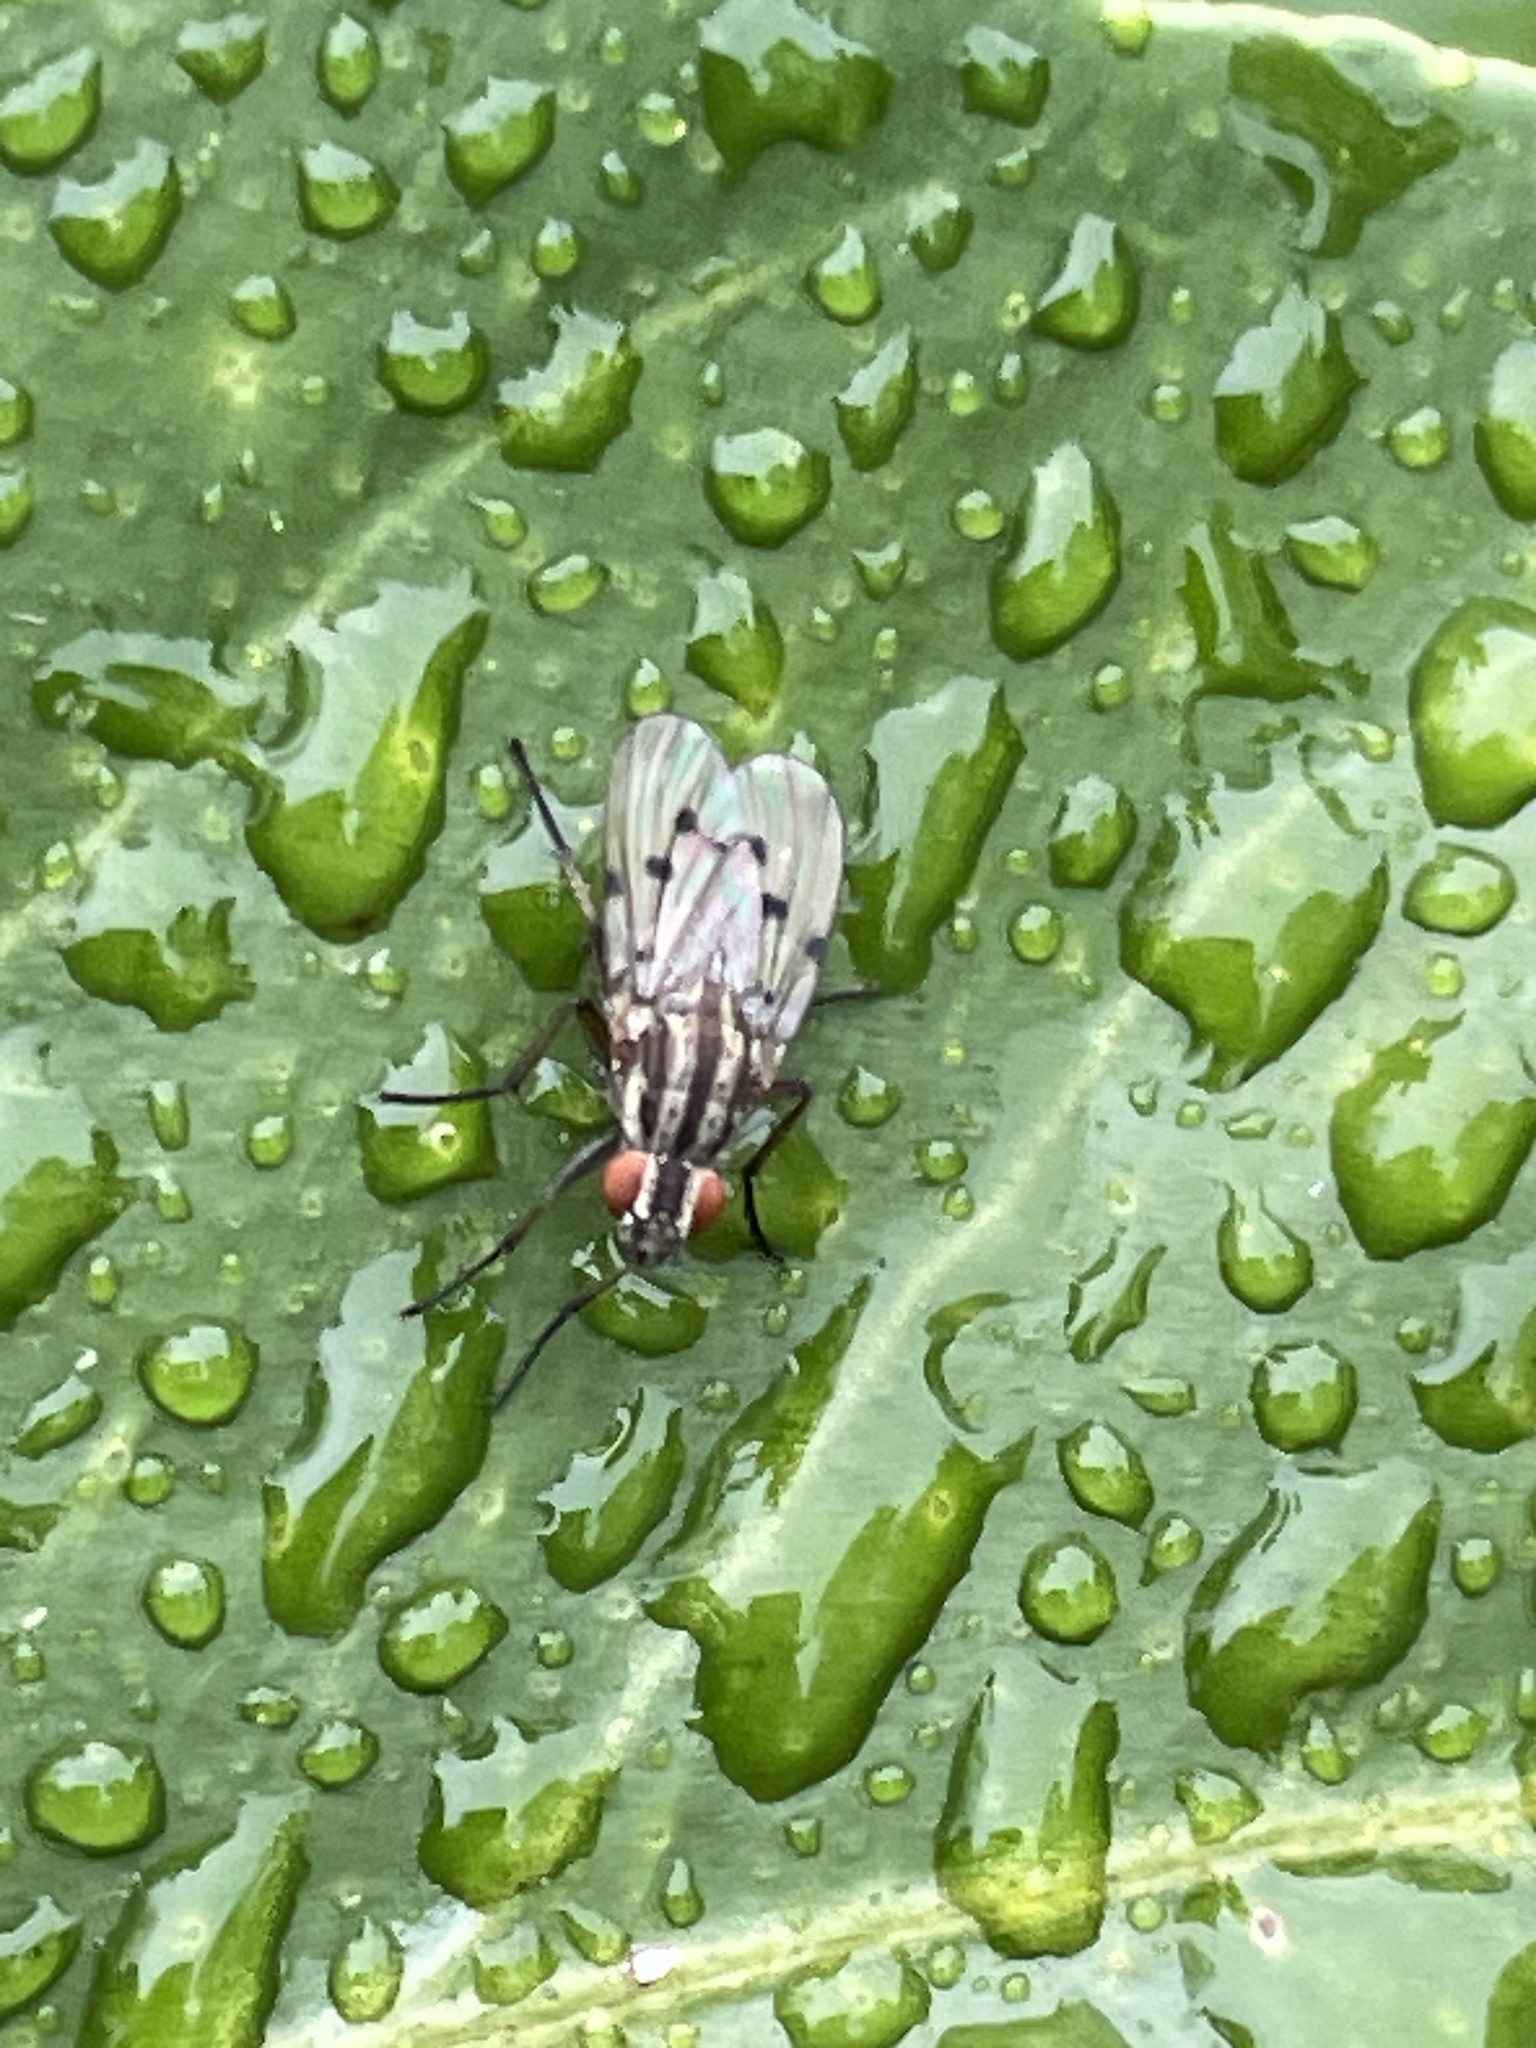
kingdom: Animalia
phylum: Arthropoda
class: Insecta
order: Diptera
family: Anthomyiidae
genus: Anthomyia
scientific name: Anthomyia punctipennis
